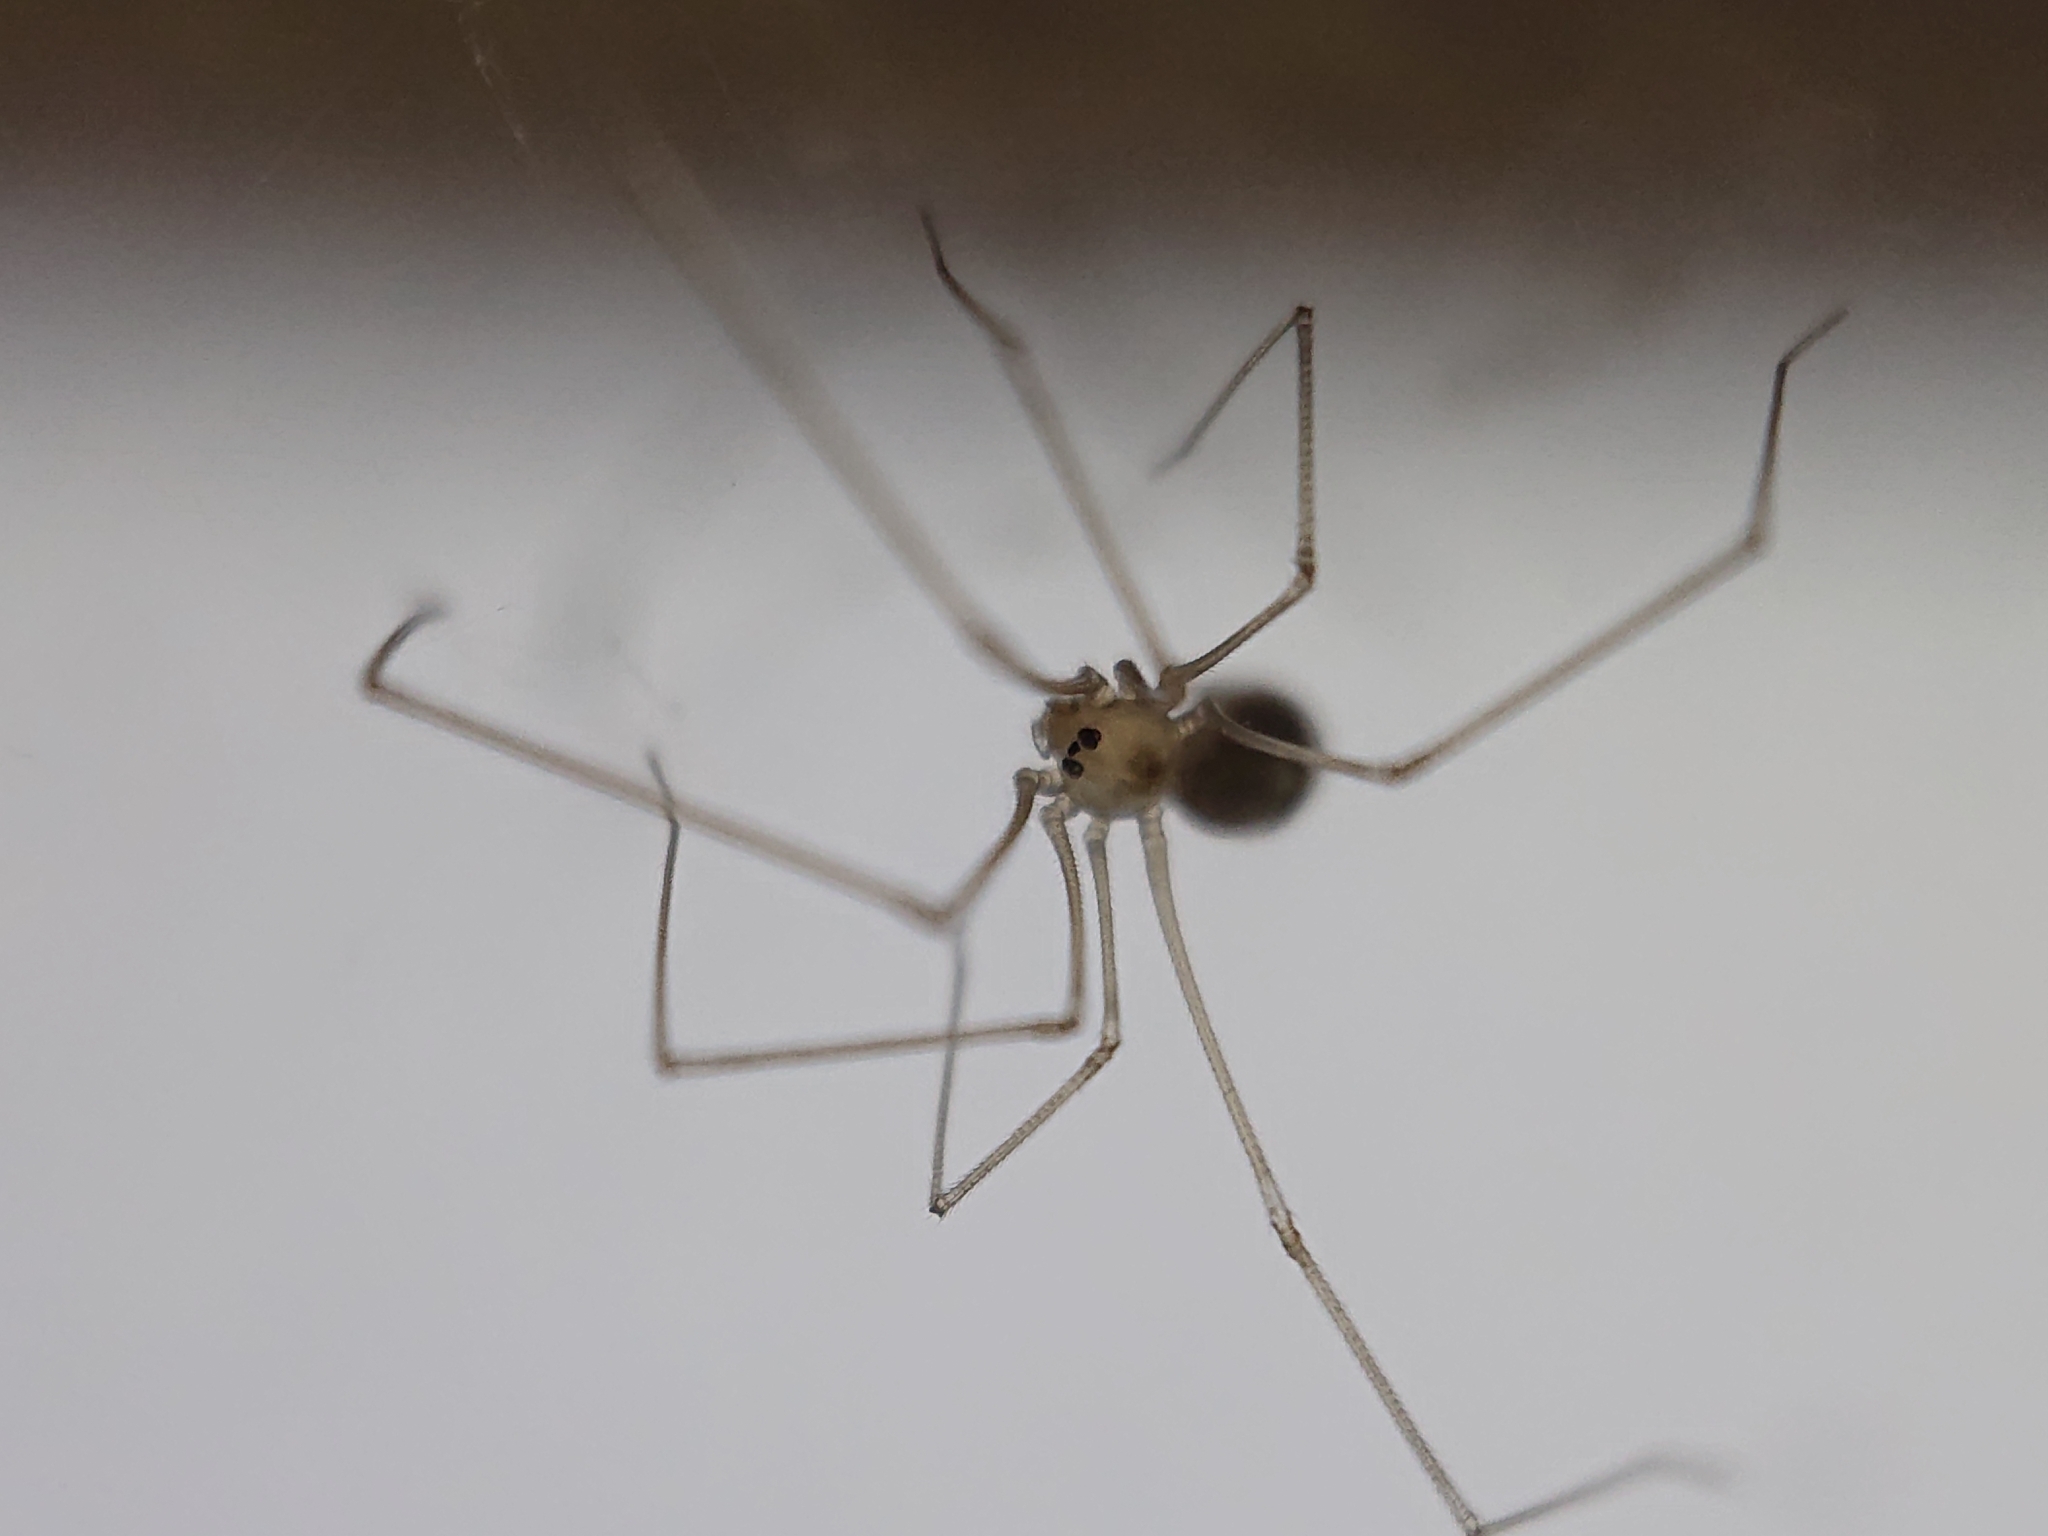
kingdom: Animalia
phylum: Arthropoda
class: Arachnida
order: Araneae
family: Pholcidae
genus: Pholcus
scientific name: Pholcus phalangioides
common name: Longbodied cellar spider
